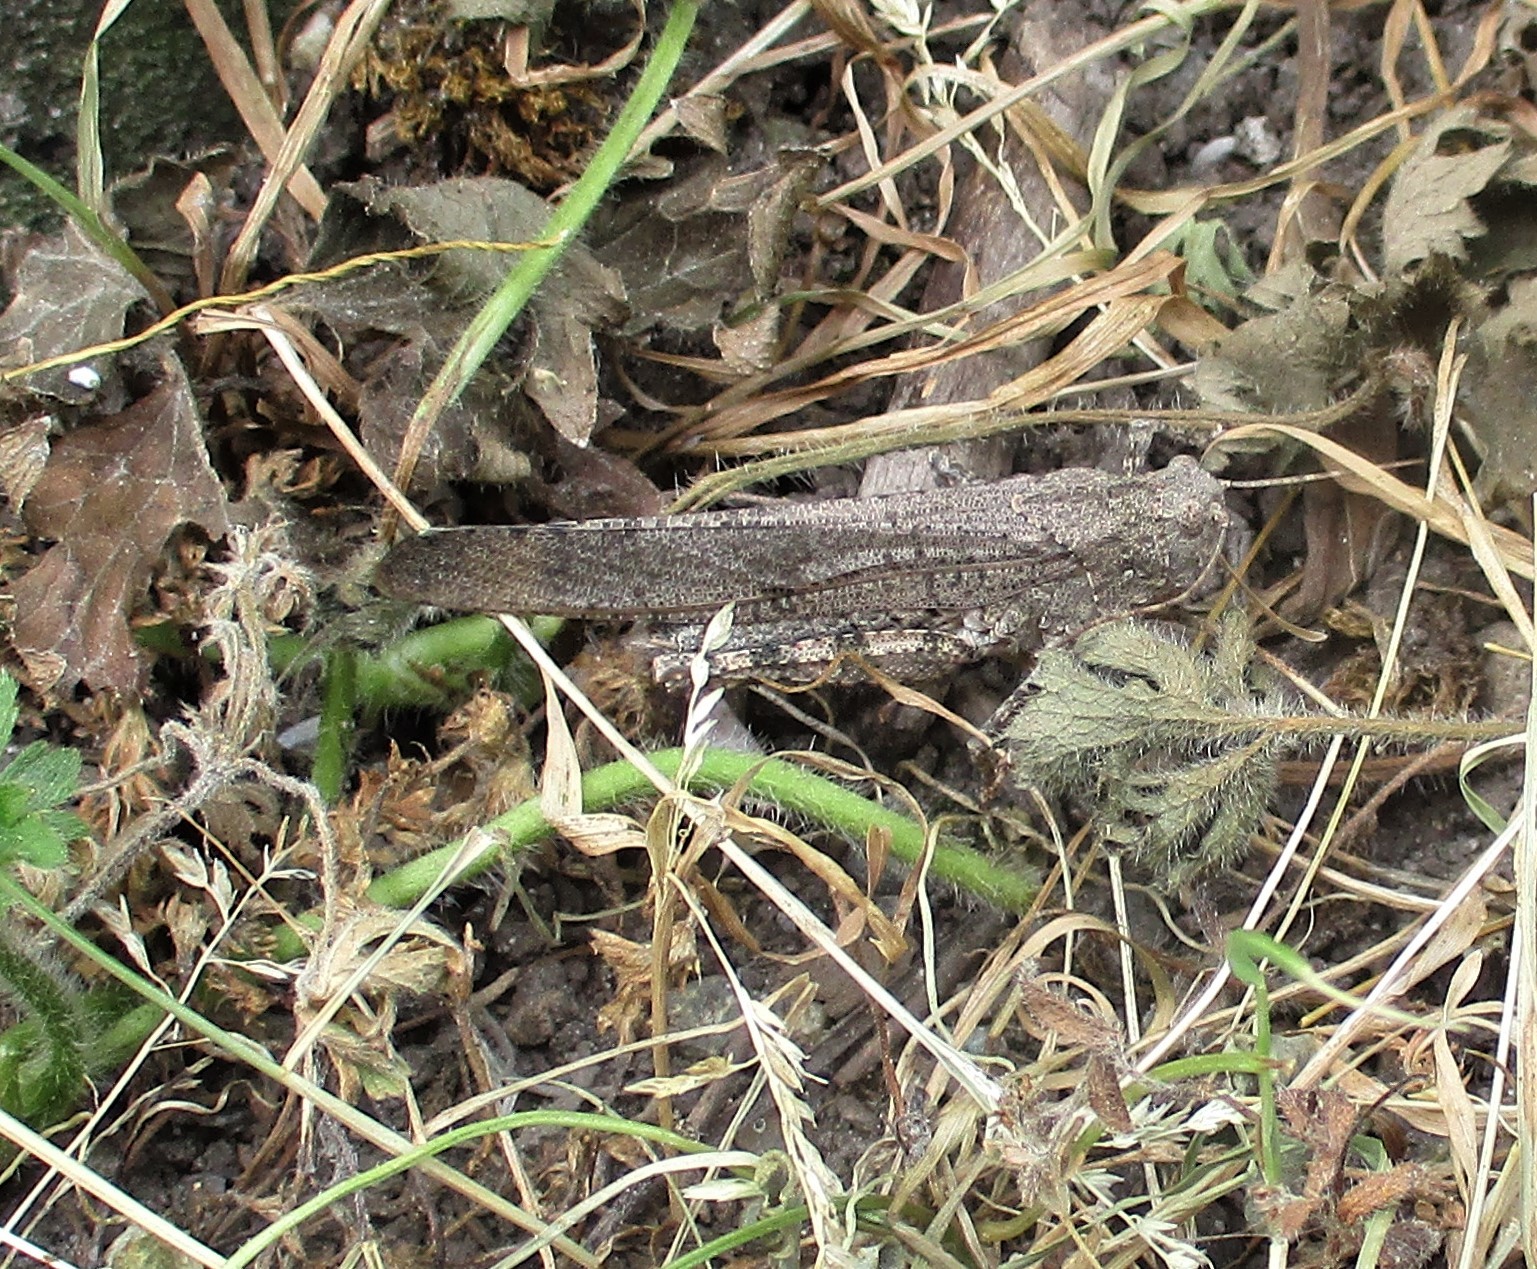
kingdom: Animalia
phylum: Arthropoda
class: Insecta
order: Orthoptera
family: Acrididae
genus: Dissosteira
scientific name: Dissosteira carolina
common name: Carolina grasshopper
